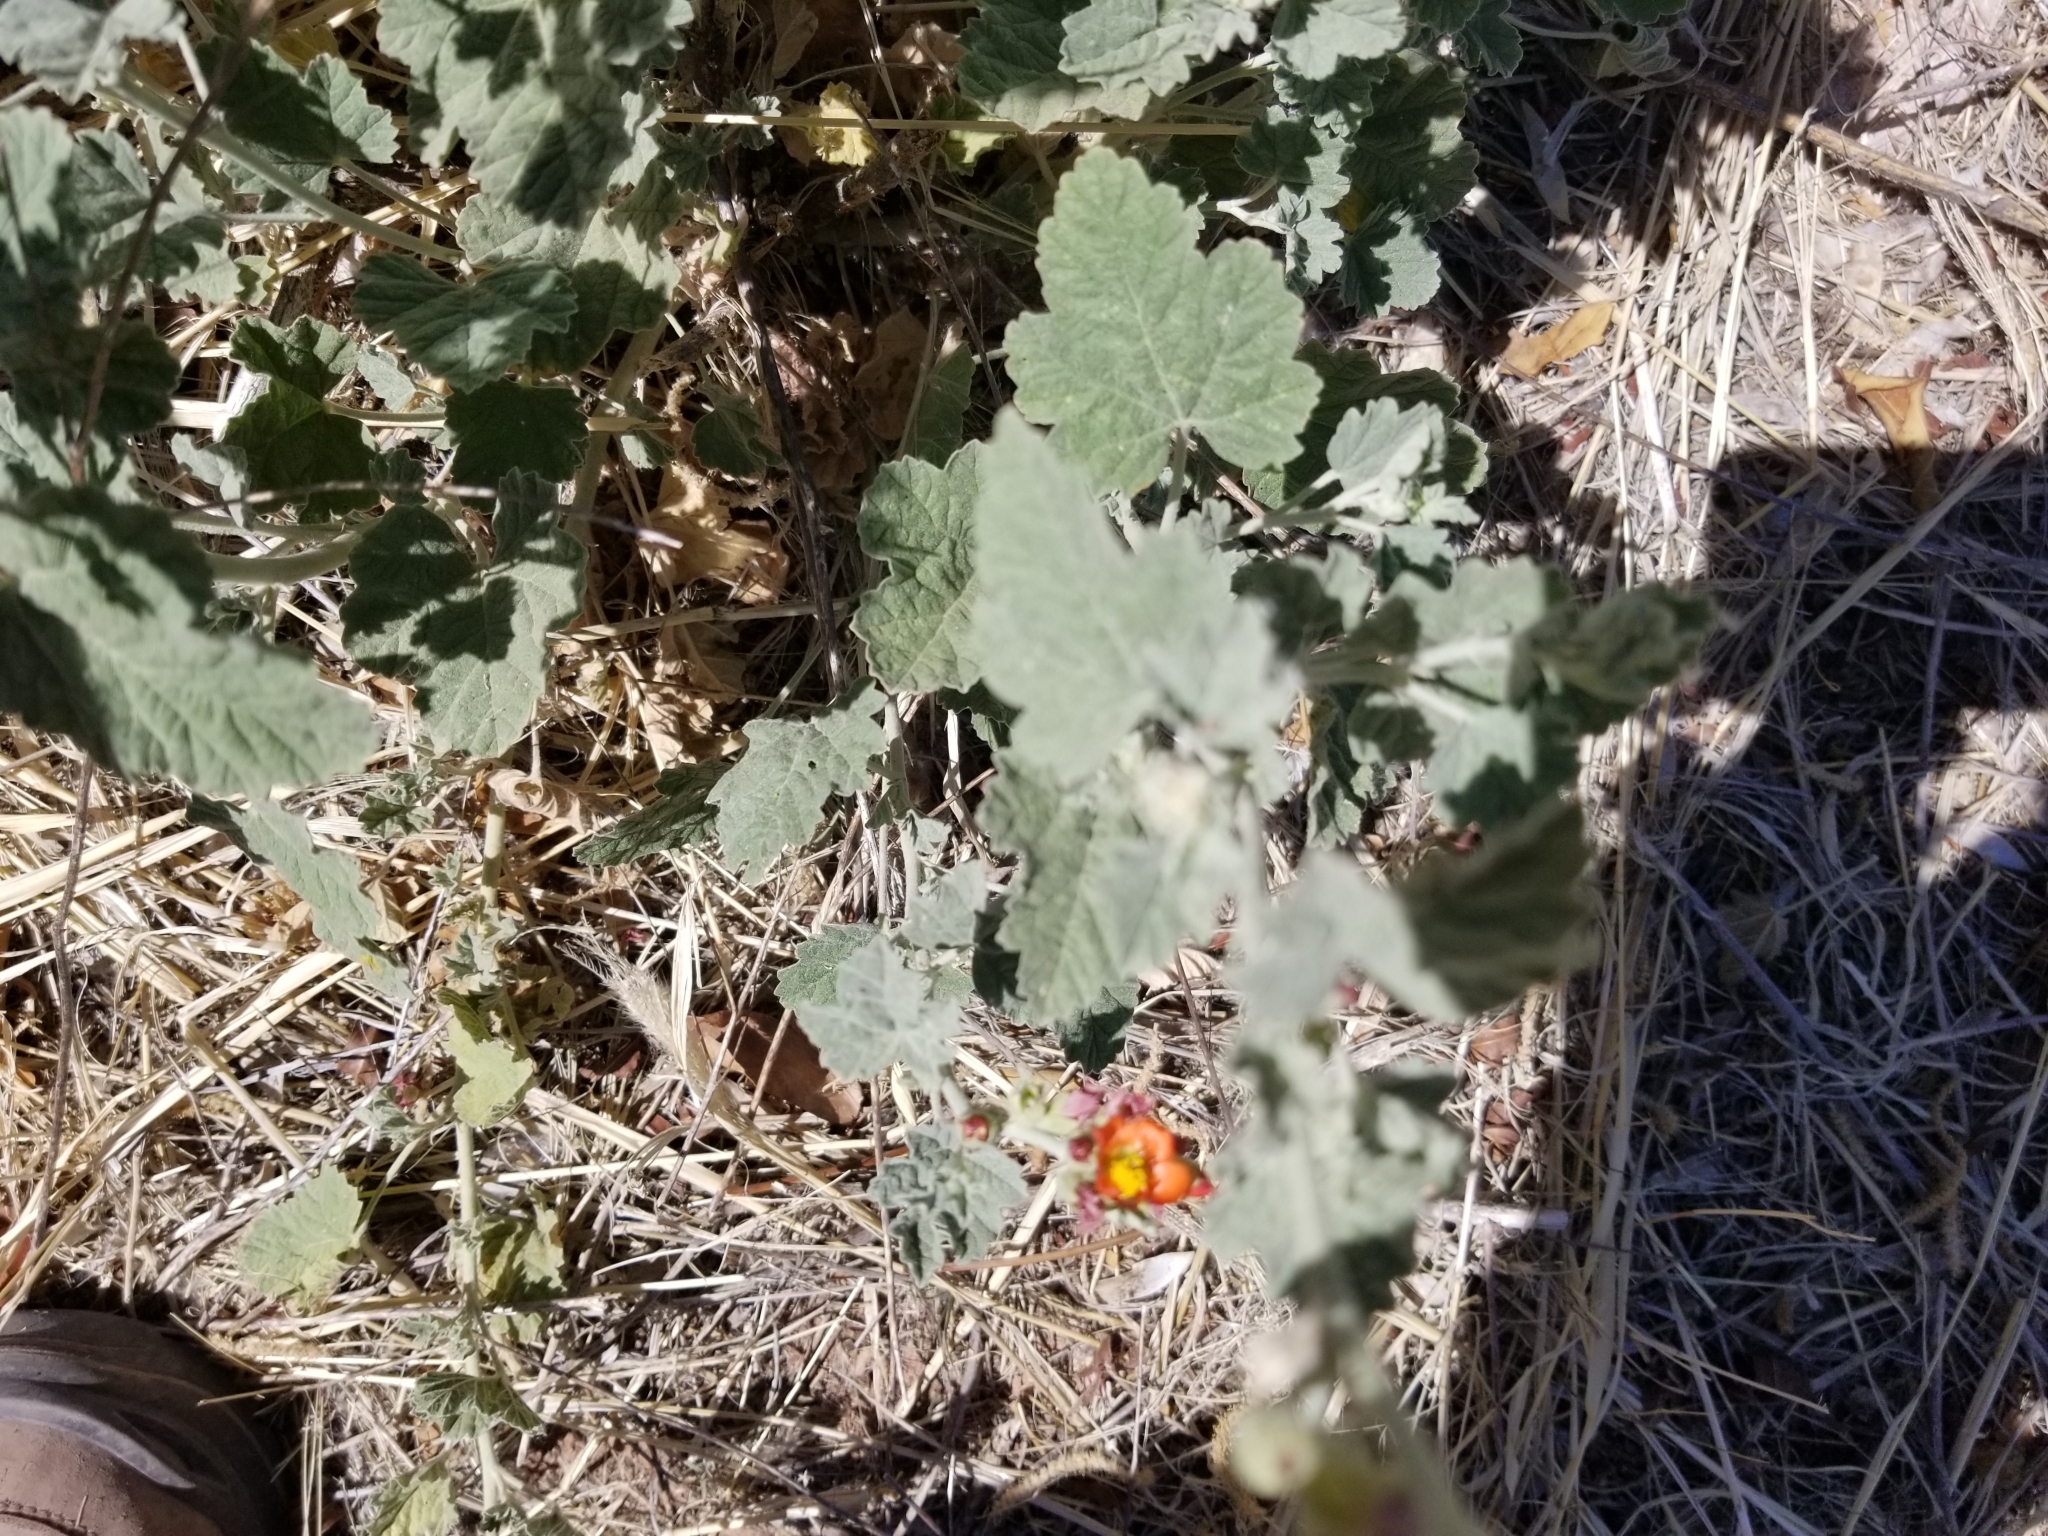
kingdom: Plantae
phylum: Tracheophyta
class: Magnoliopsida
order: Malvales
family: Malvaceae
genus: Sphaeralcea
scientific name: Sphaeralcea parvifolia
